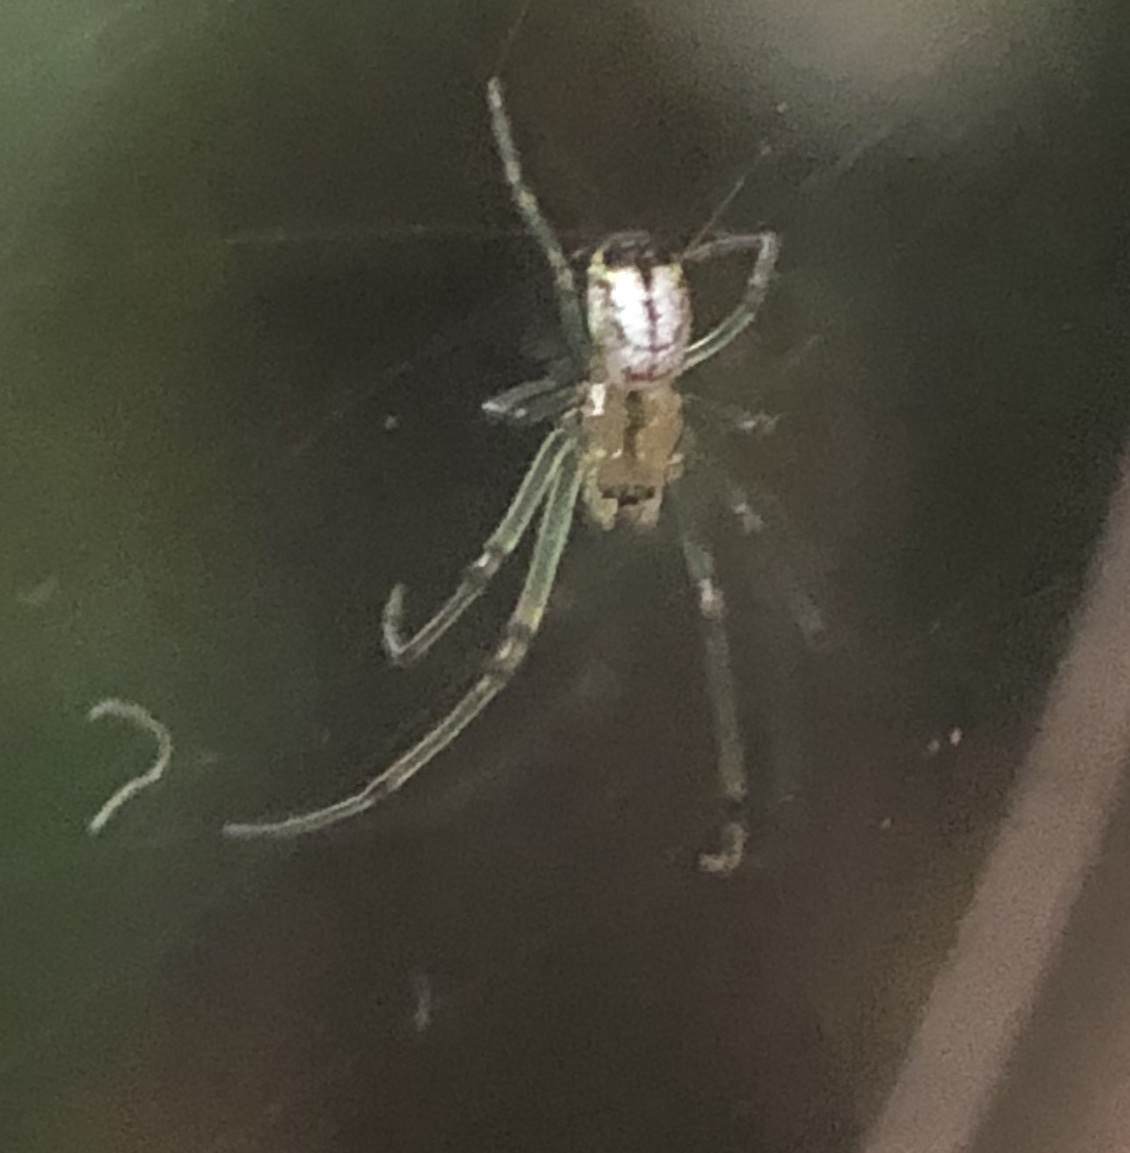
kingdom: Animalia
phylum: Arthropoda
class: Arachnida
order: Araneae
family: Tetragnathidae
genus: Leucauge
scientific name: Leucauge venusta
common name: Longjawed orb weavers
